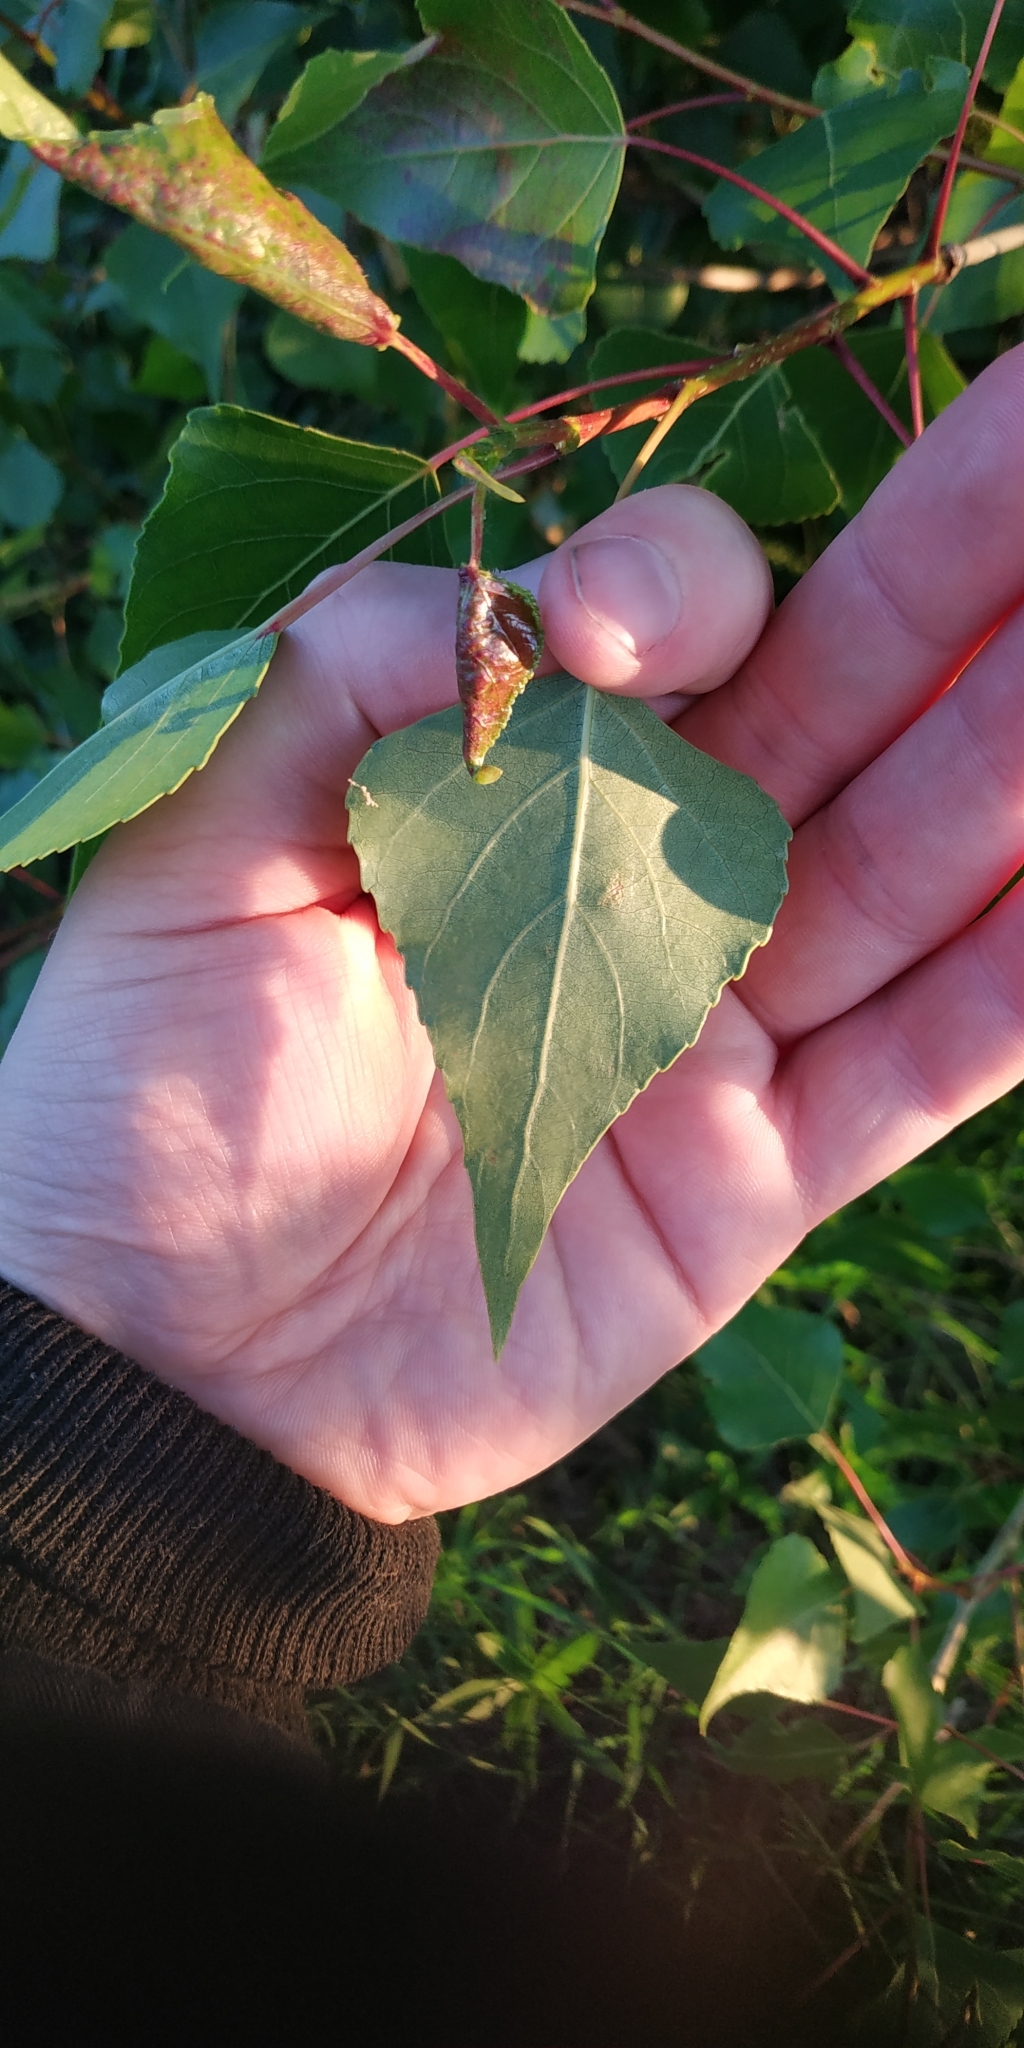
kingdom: Plantae
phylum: Tracheophyta
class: Magnoliopsida
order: Malpighiales
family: Salicaceae
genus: Populus
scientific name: Populus nigra
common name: Black poplar
